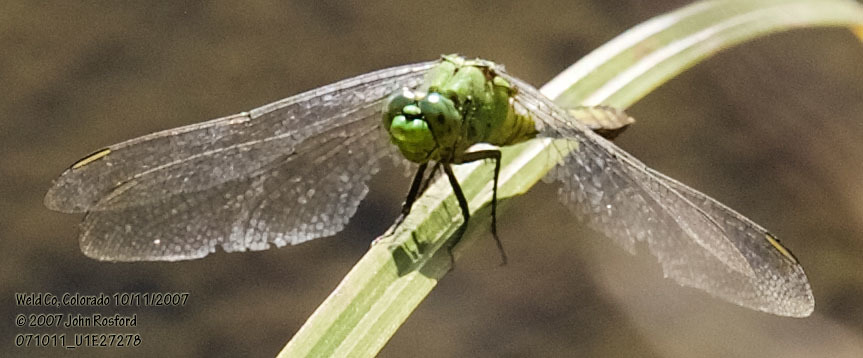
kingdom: Animalia
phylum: Arthropoda
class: Insecta
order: Odonata
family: Libellulidae
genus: Erythemis
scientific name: Erythemis collocata
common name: Western pondhawk
